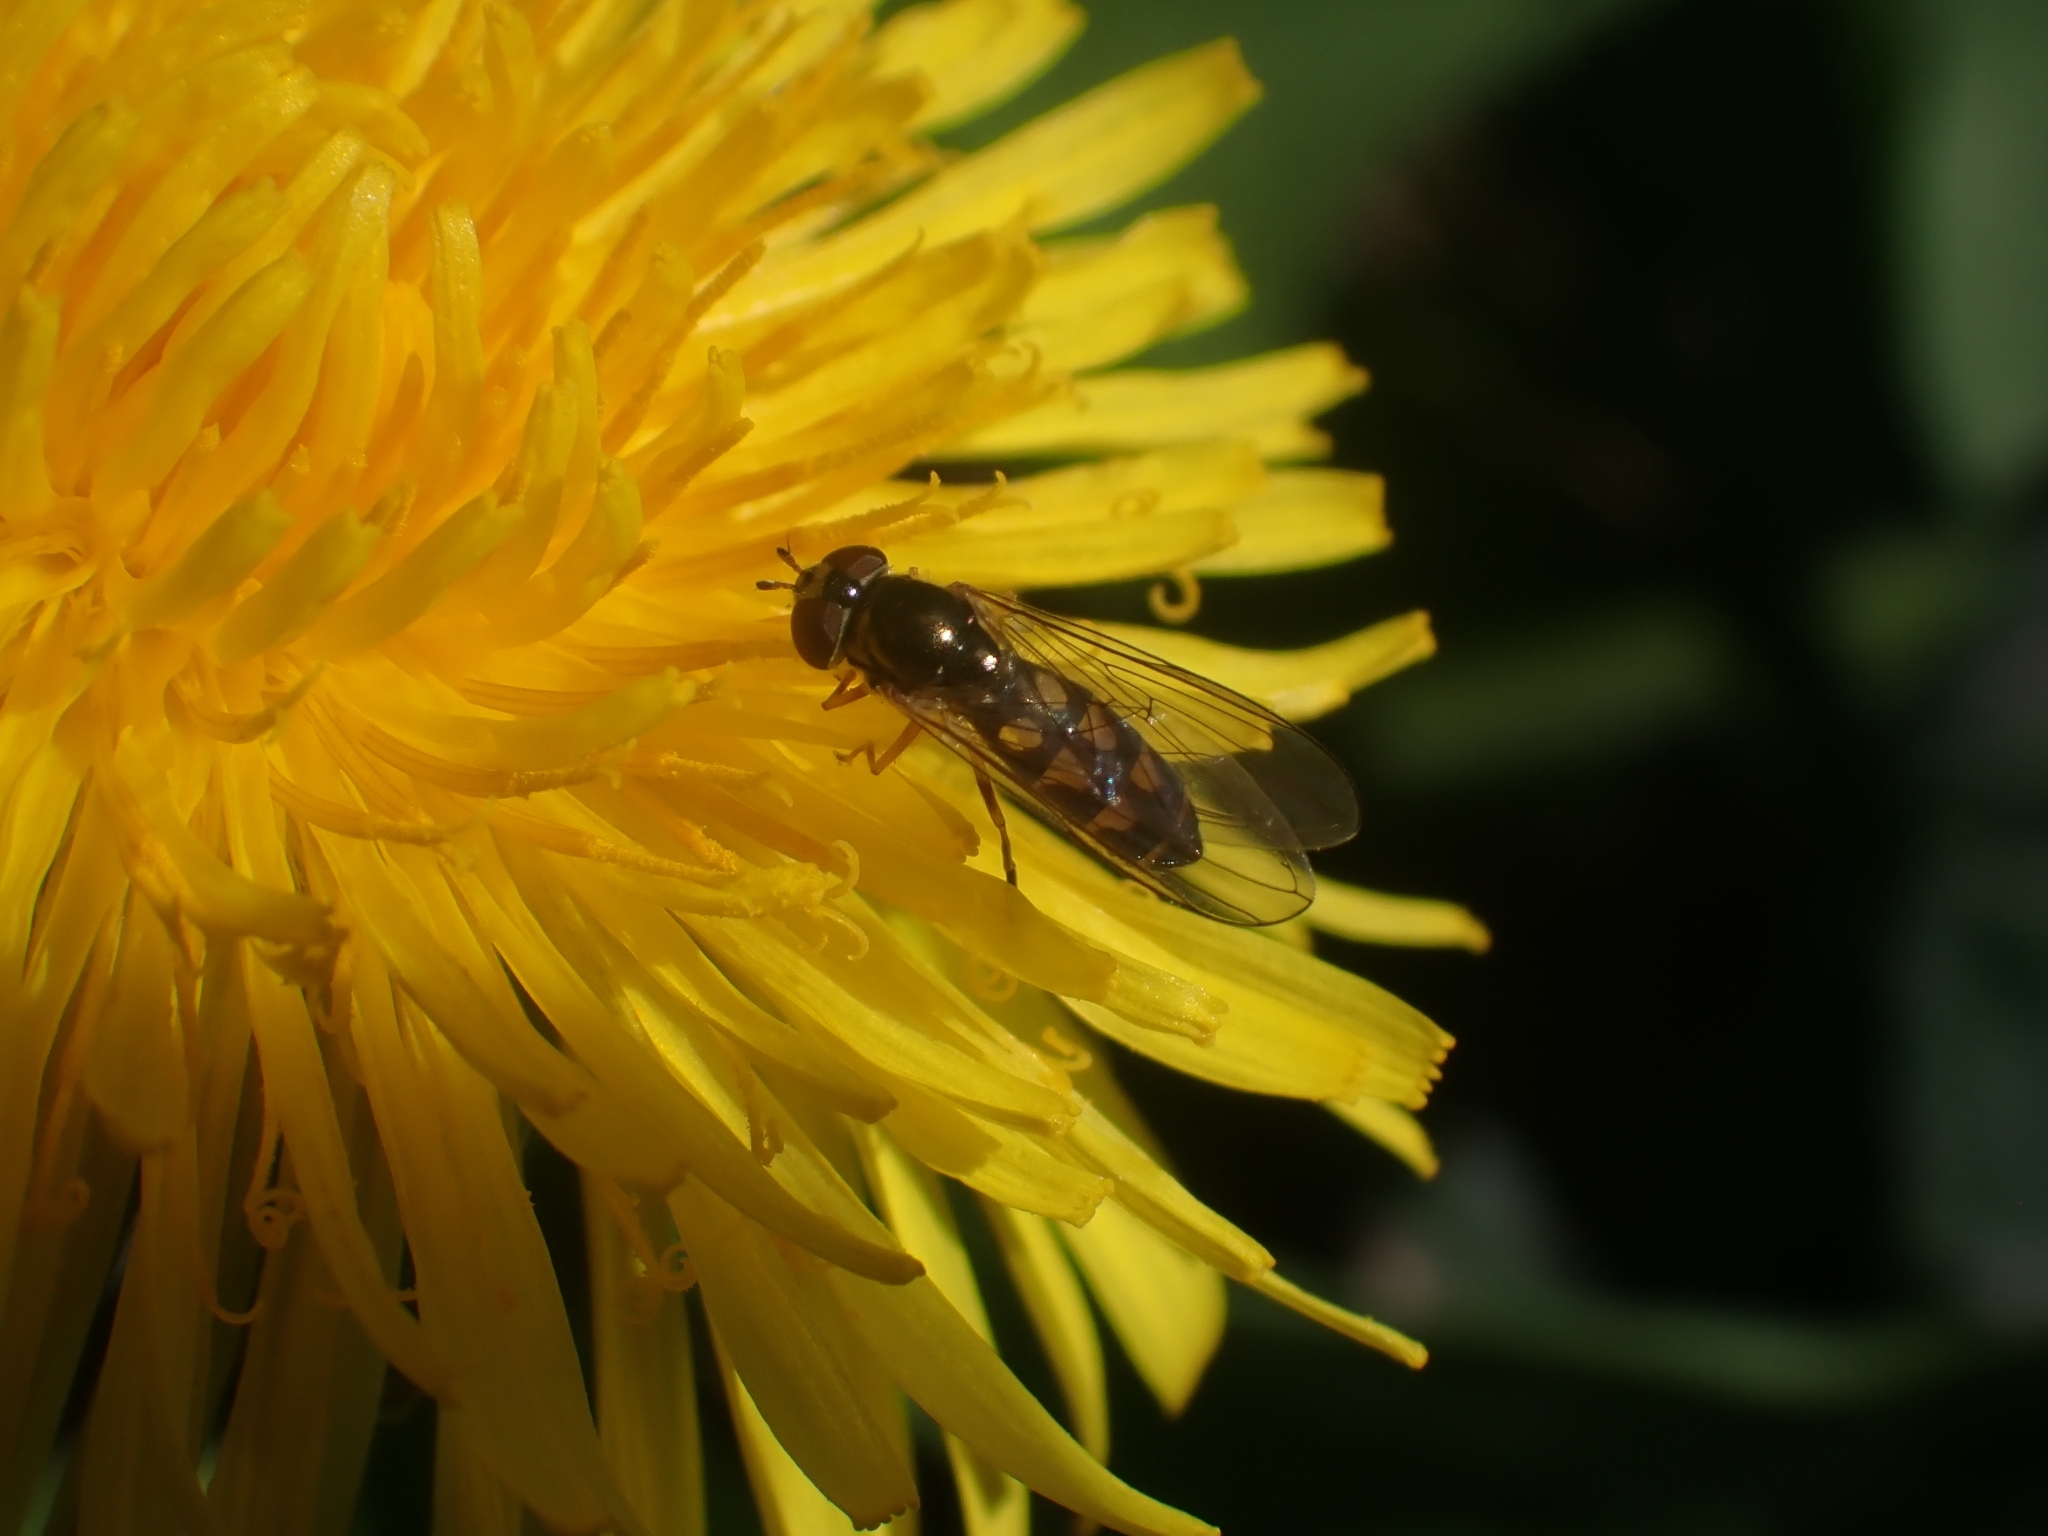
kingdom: Animalia
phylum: Arthropoda
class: Insecta
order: Diptera
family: Syrphidae
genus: Melanostoma
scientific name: Melanostoma
